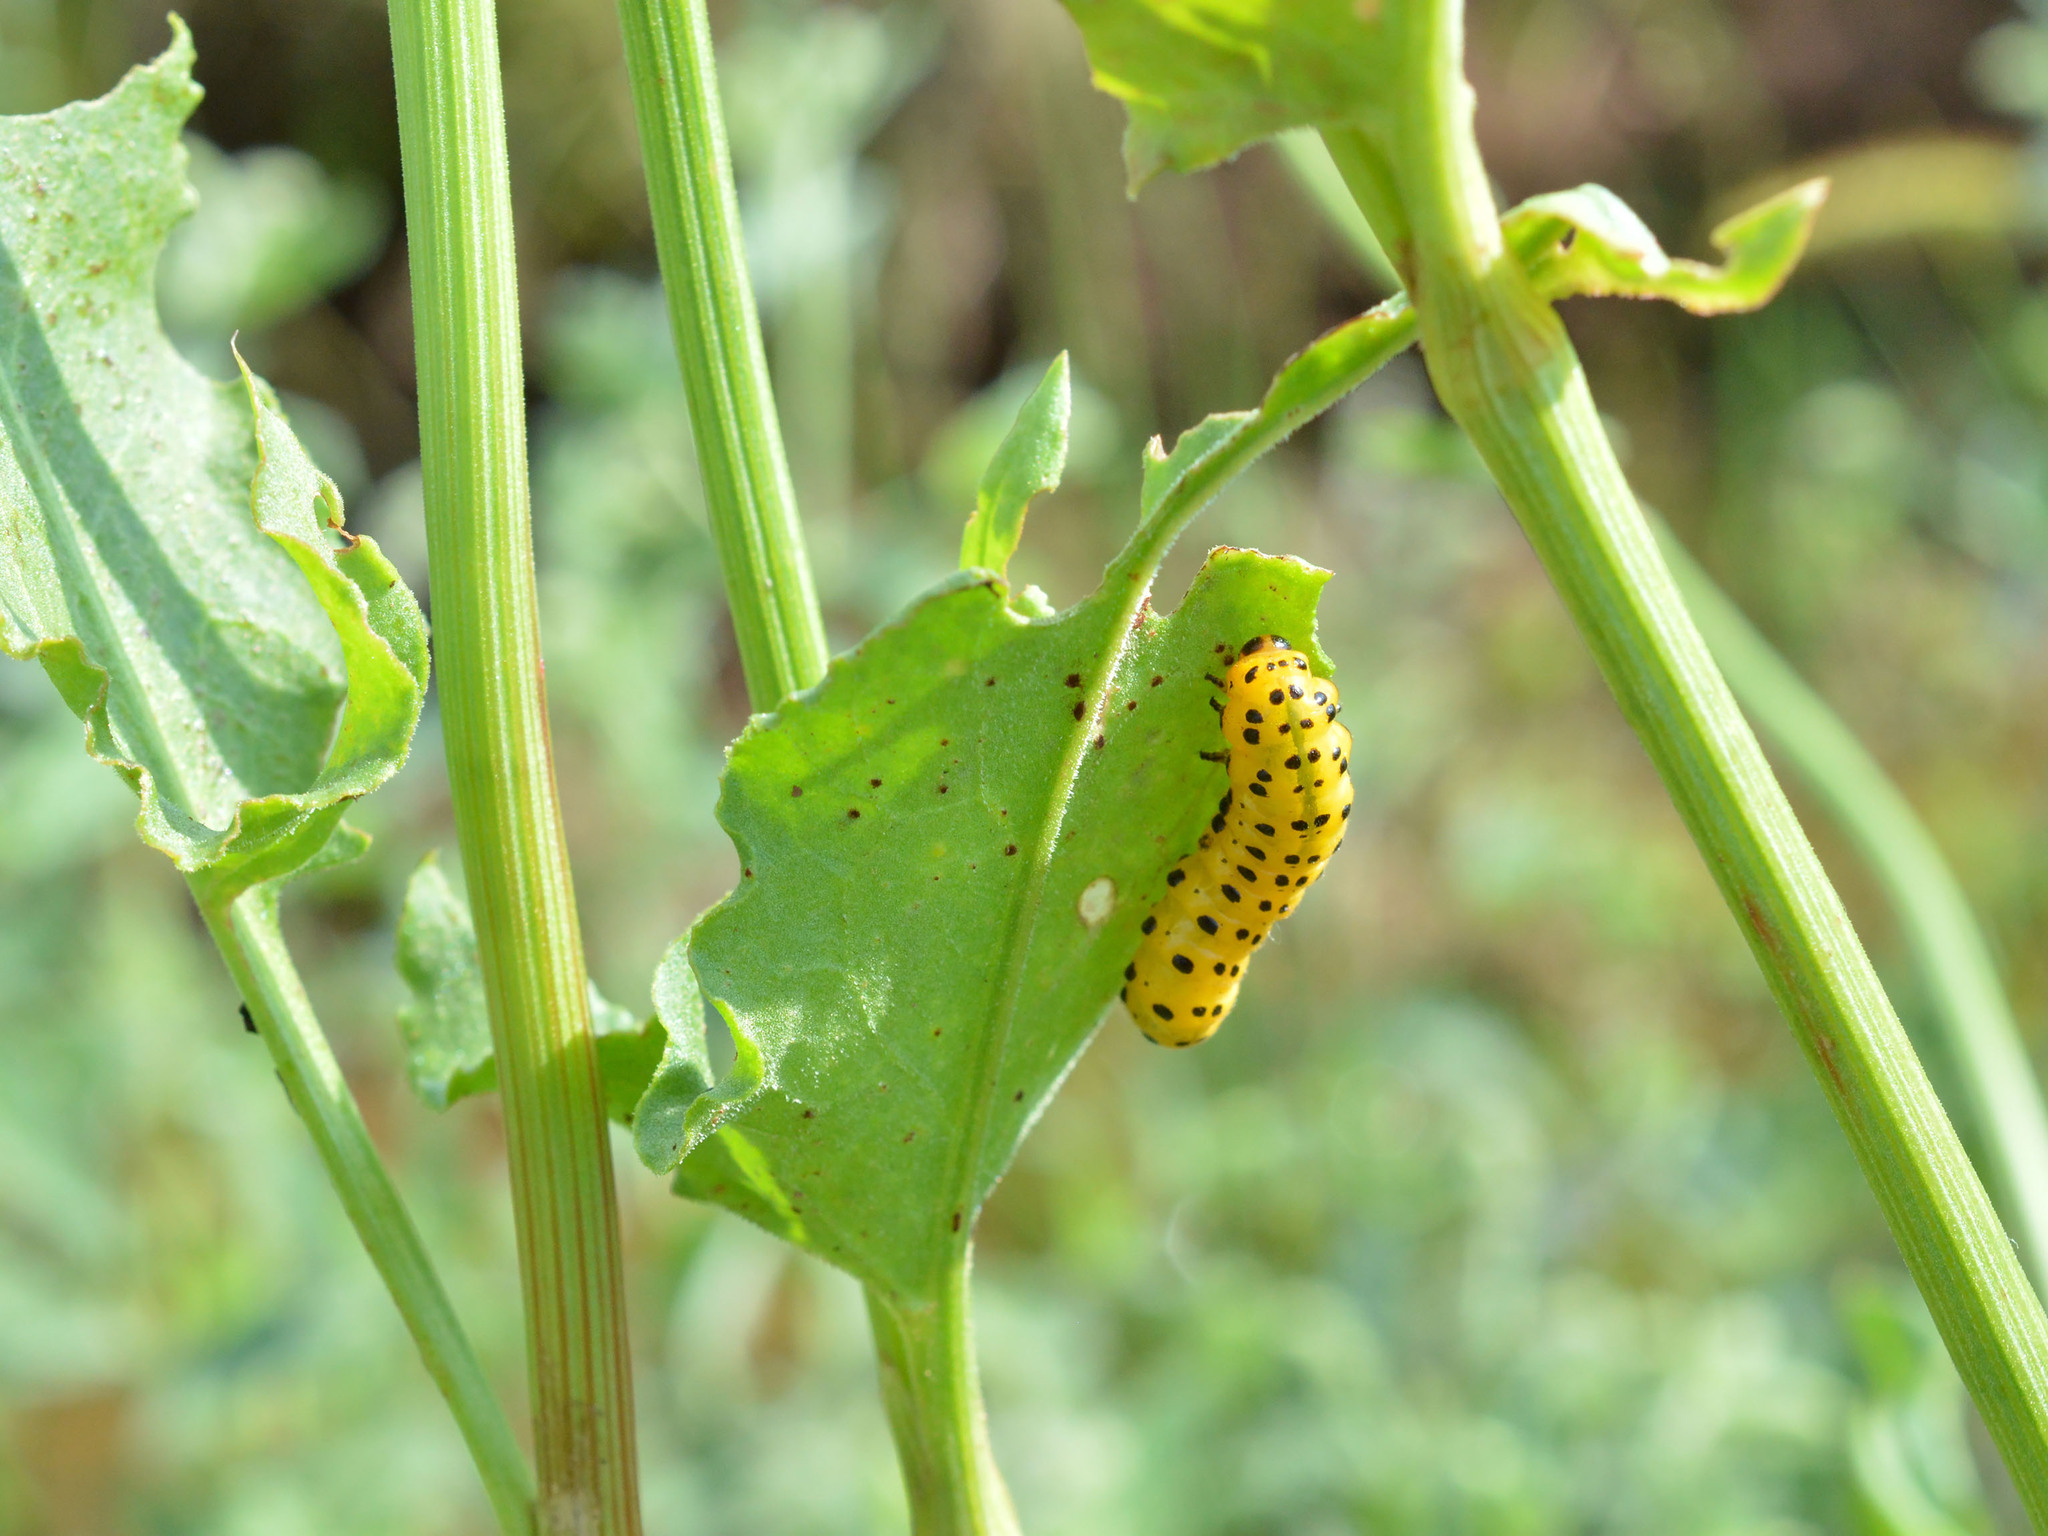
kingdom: Animalia
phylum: Arthropoda
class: Insecta
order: Hymenoptera
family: Argidae
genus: Kokujewia
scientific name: Kokujewia clementi
